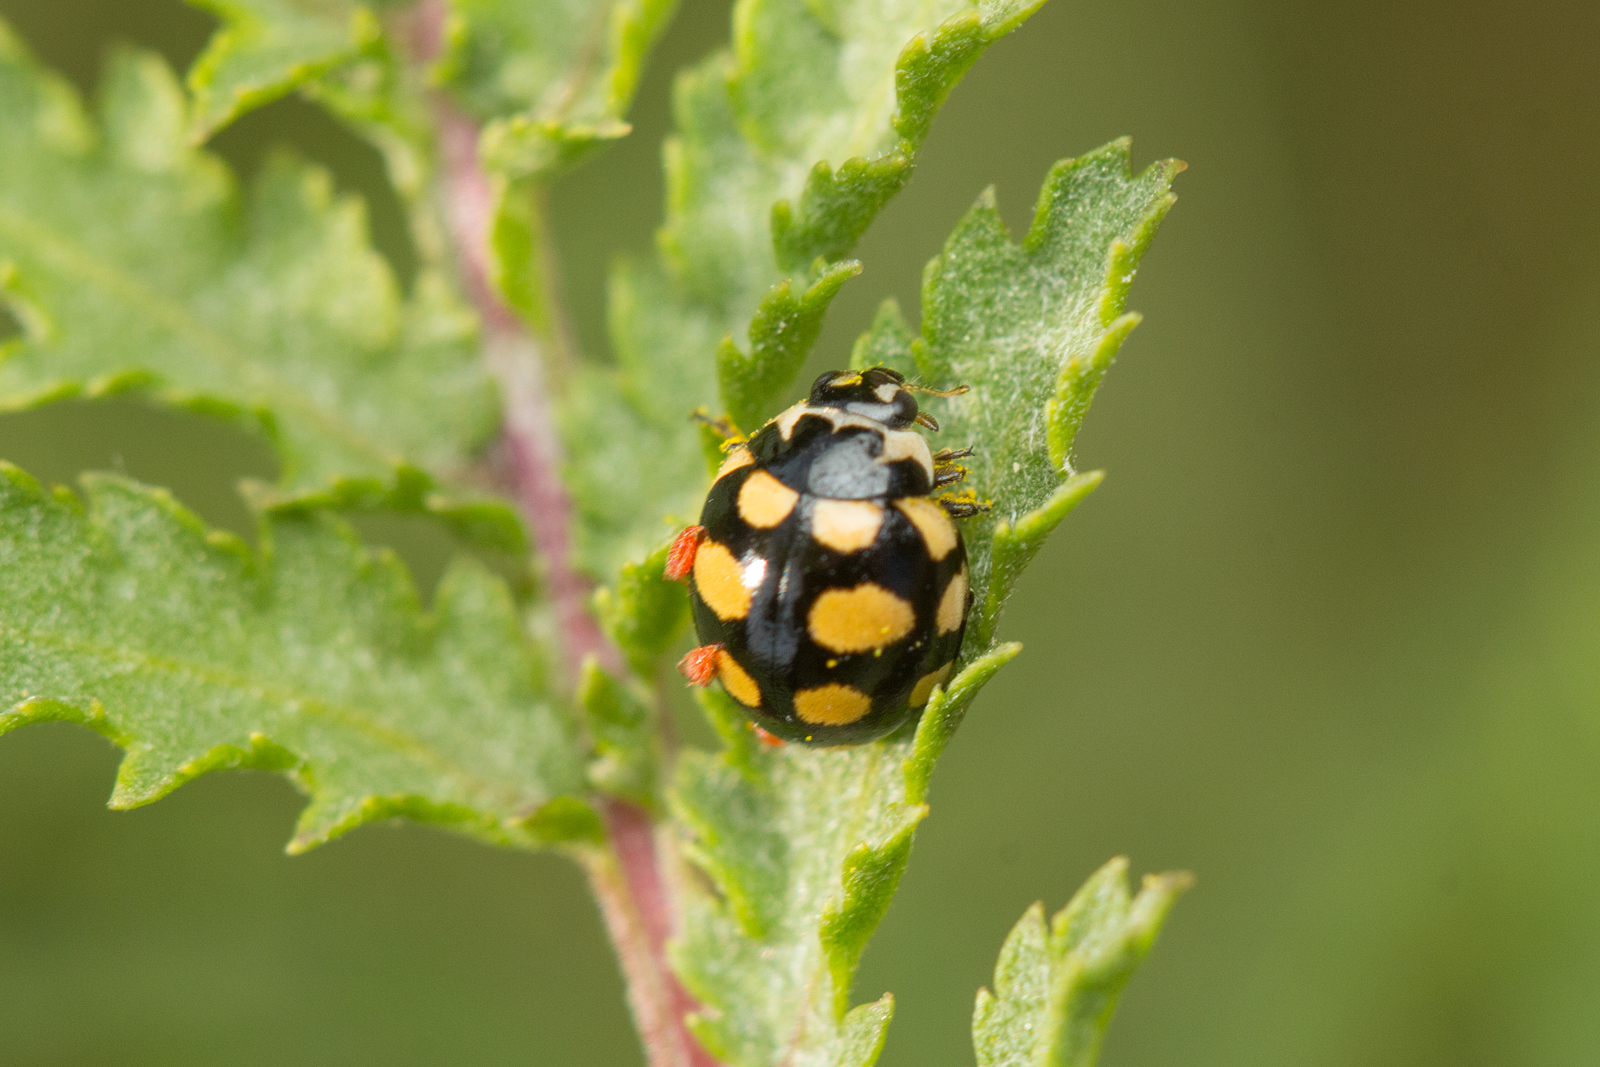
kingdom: Animalia
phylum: Arthropoda
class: Insecta
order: Coleoptera
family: Coccinellidae
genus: Coccinula
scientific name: Coccinula quatuordecimpustulata
